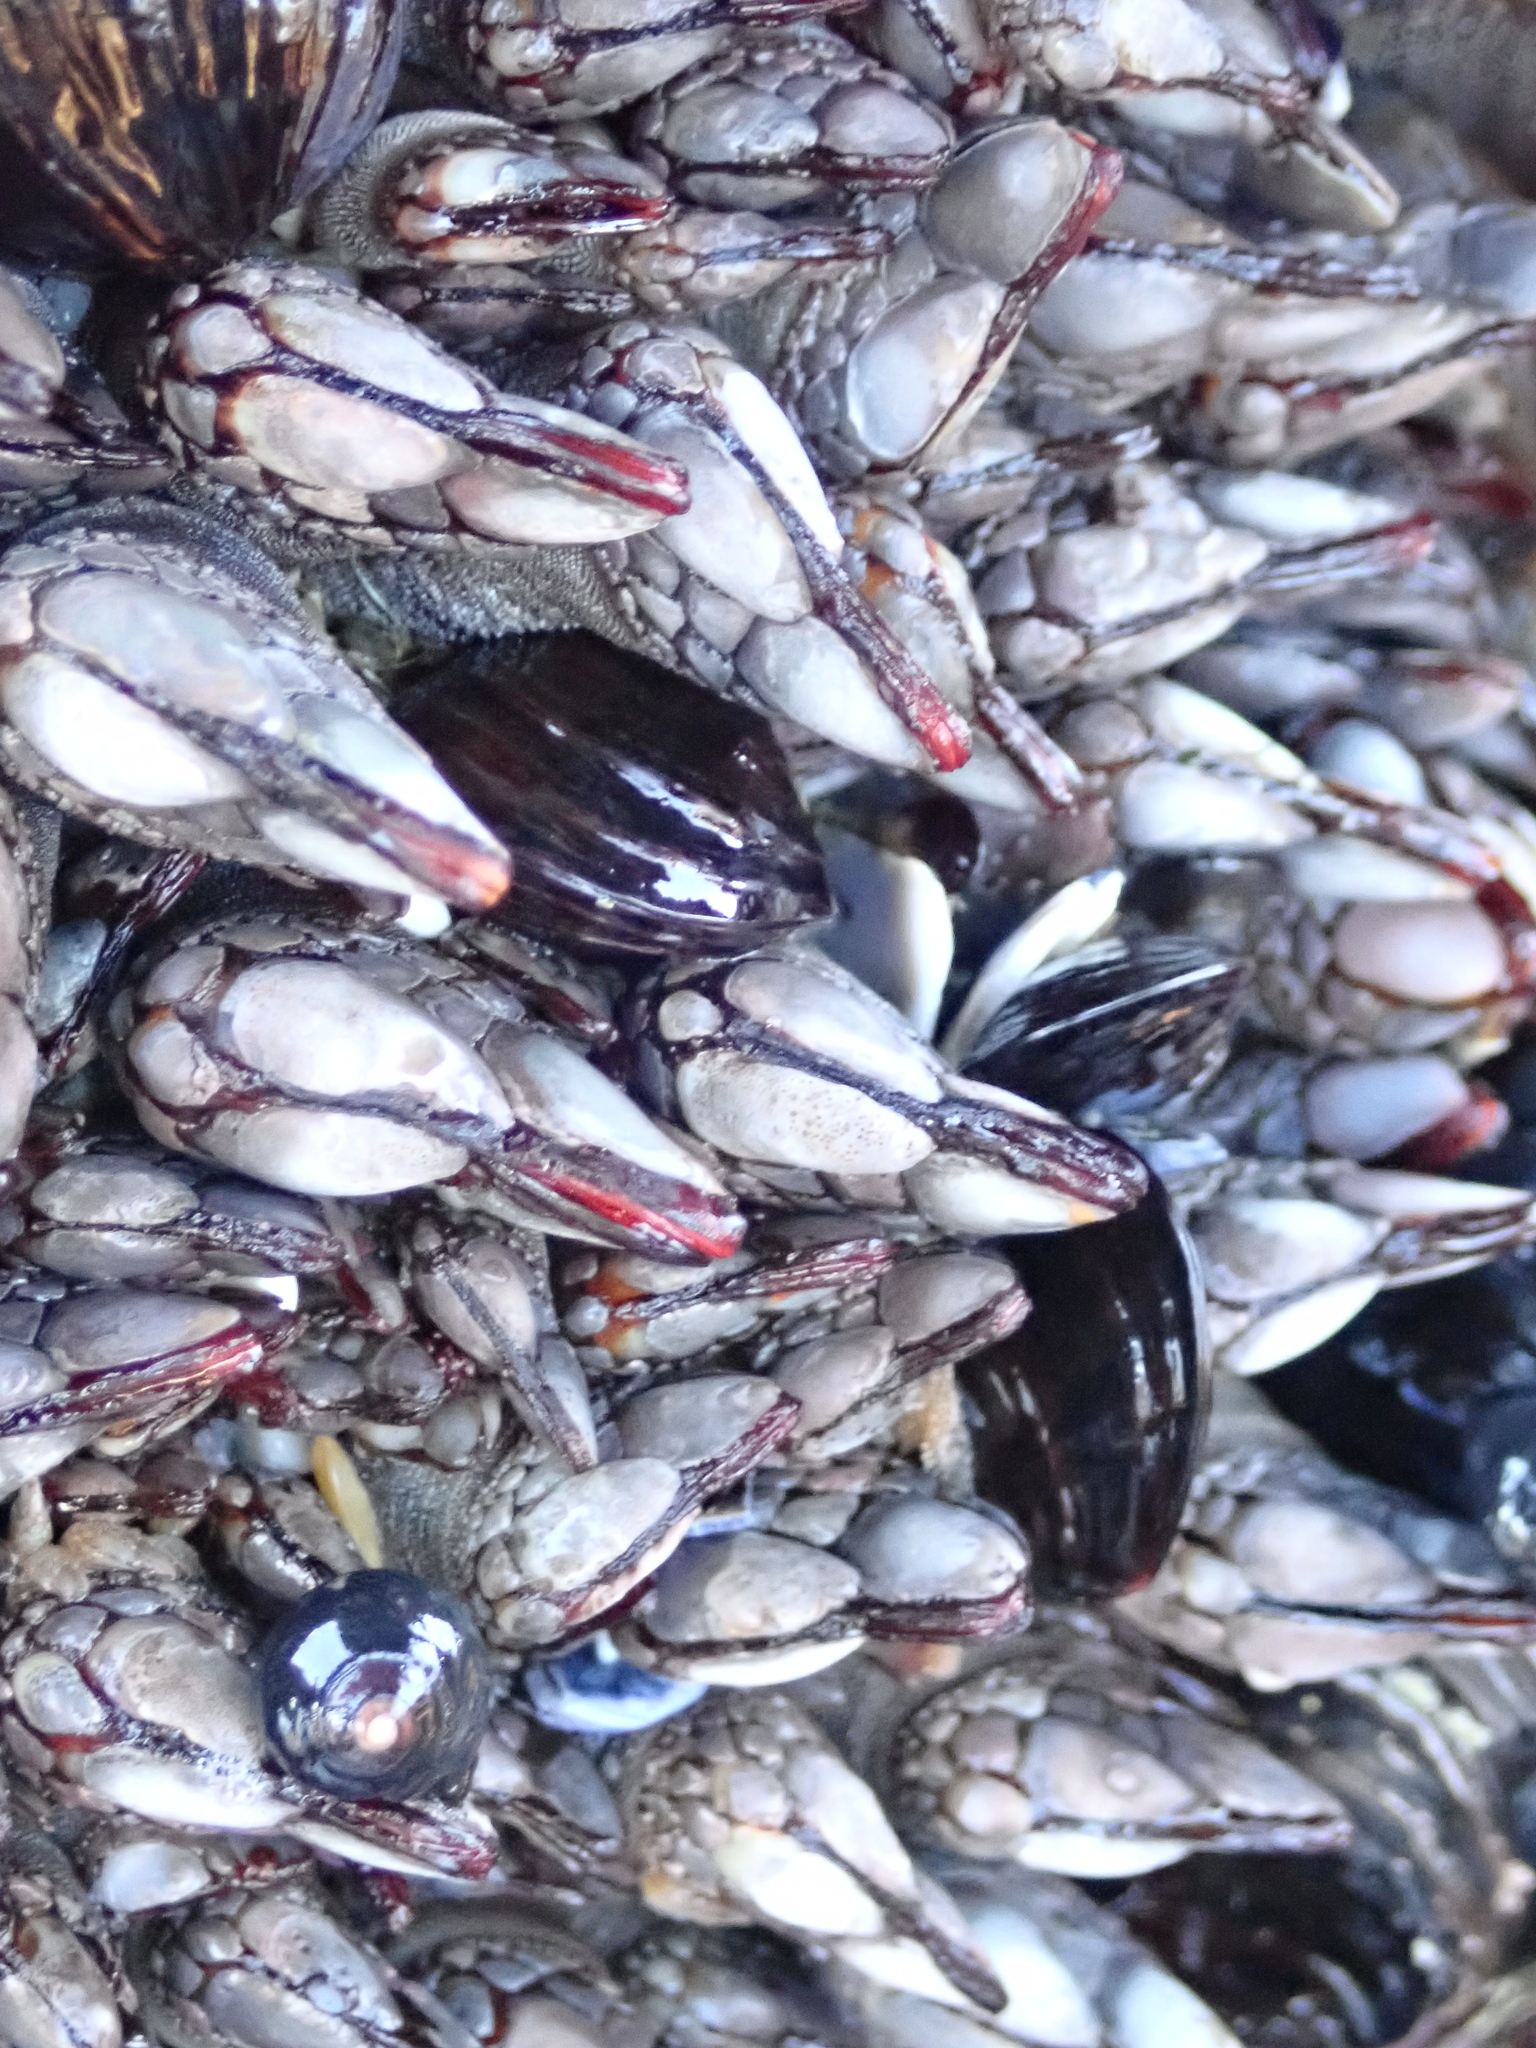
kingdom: Animalia
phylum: Arthropoda
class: Maxillopoda
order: Pedunculata
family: Pollicipedidae
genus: Pollicipes
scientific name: Pollicipes polymerus
